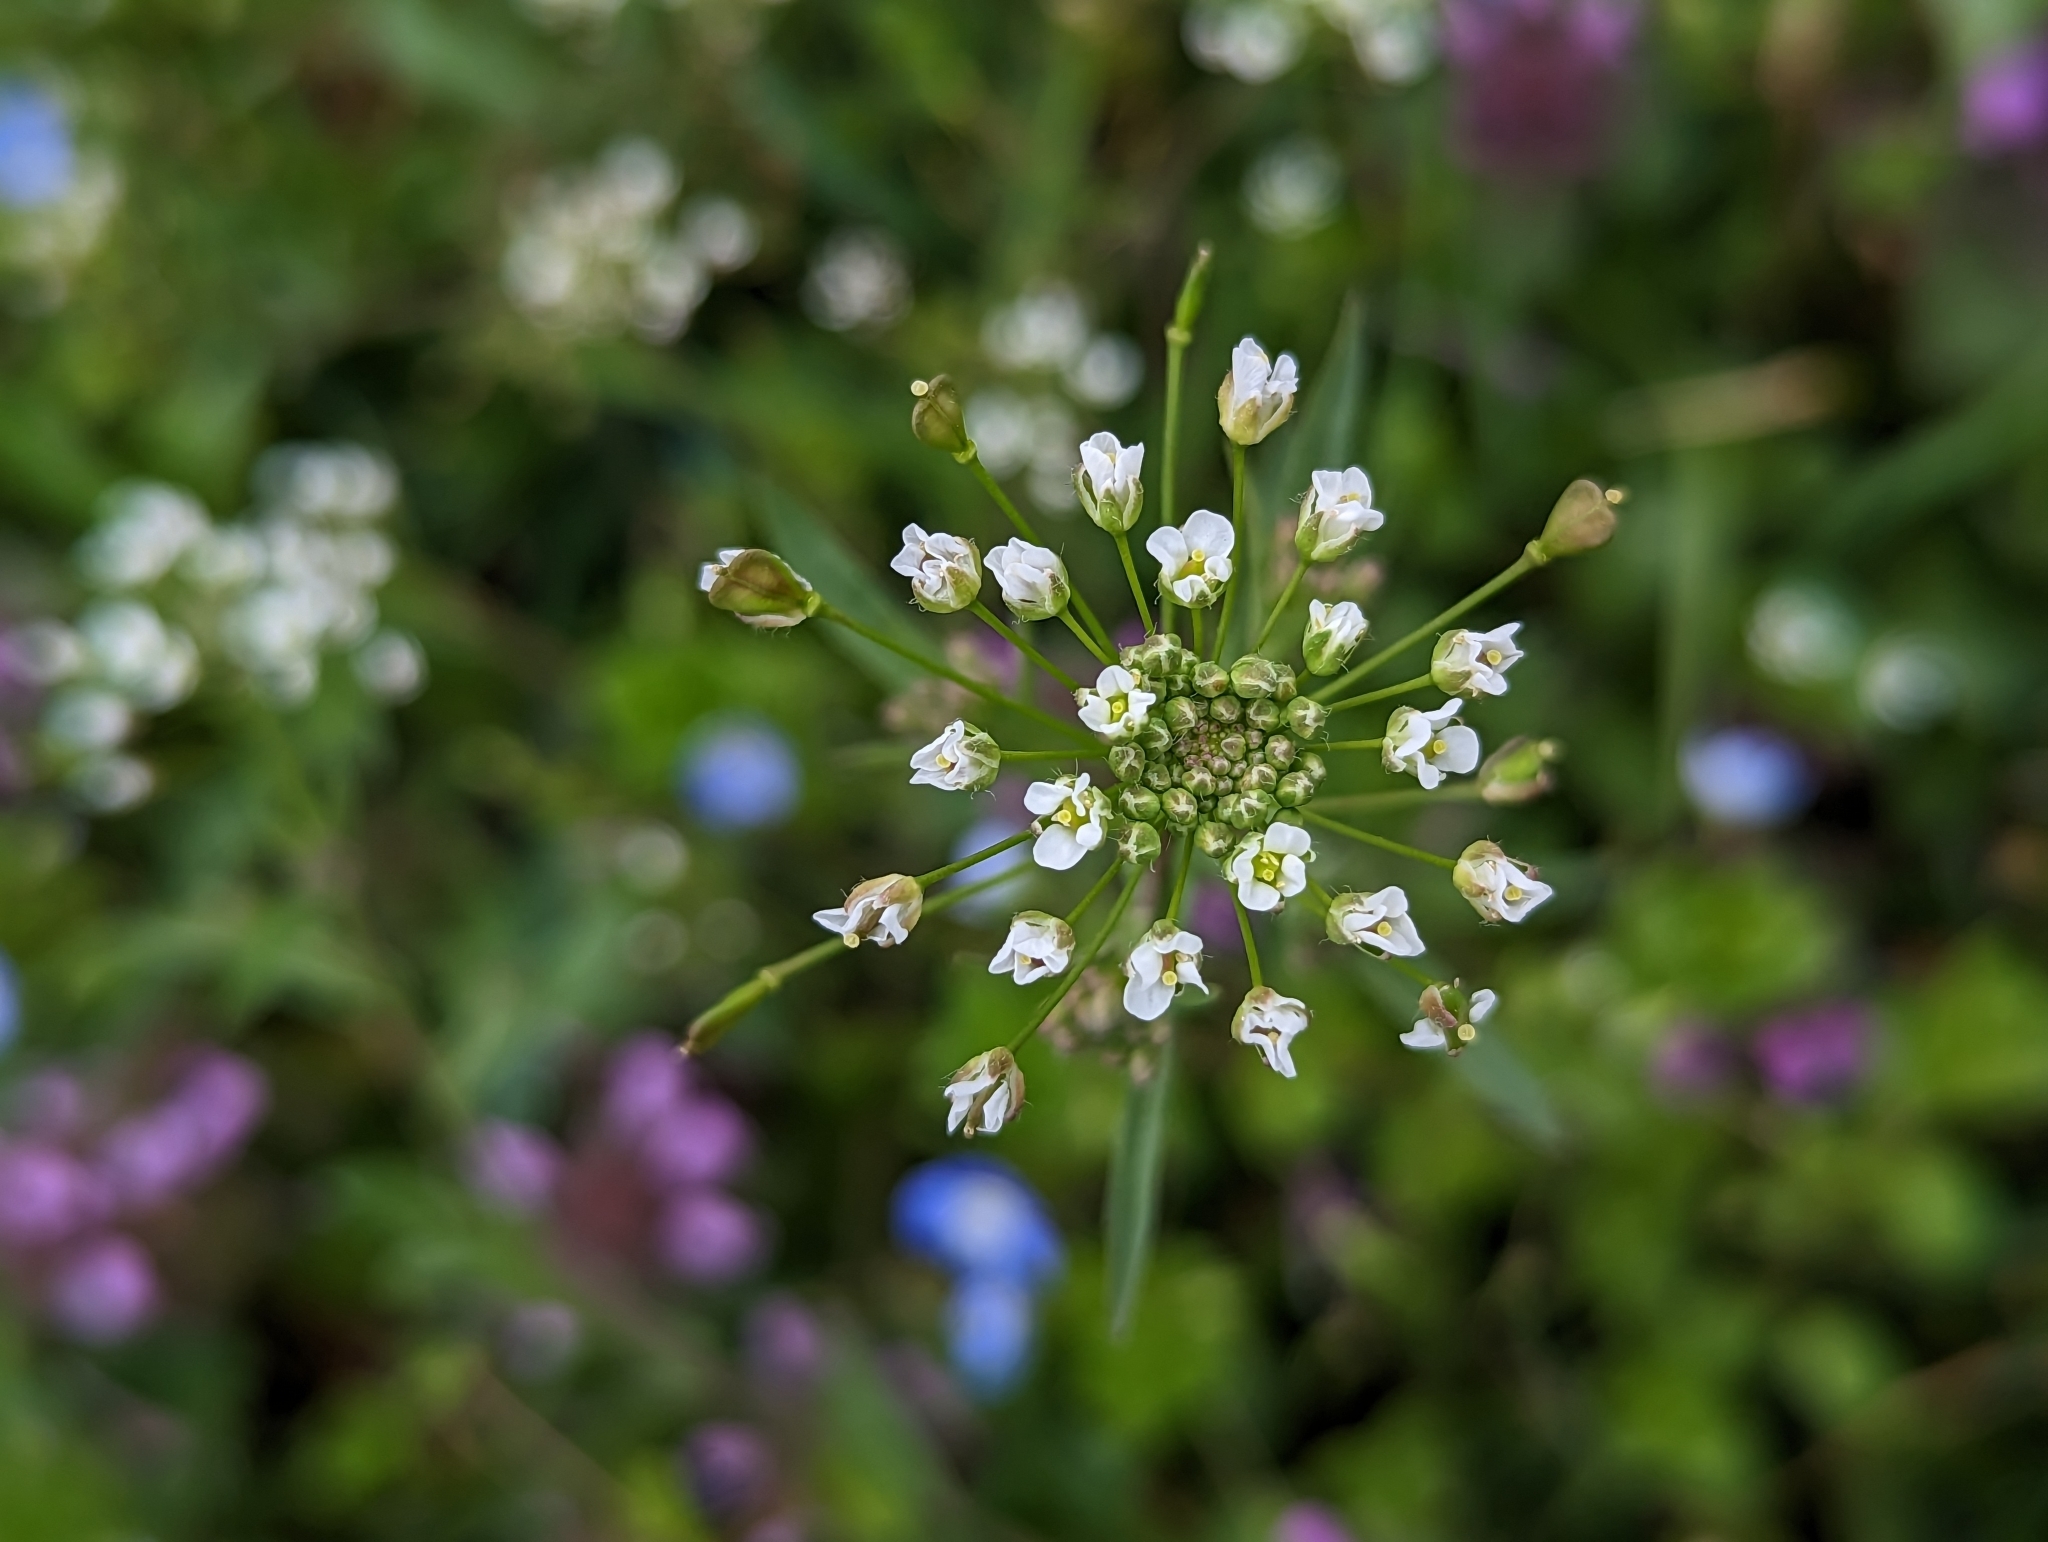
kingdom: Plantae
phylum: Tracheophyta
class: Magnoliopsida
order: Brassicales
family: Brassicaceae
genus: Capsella
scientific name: Capsella bursa-pastoris
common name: Shepherd's purse
